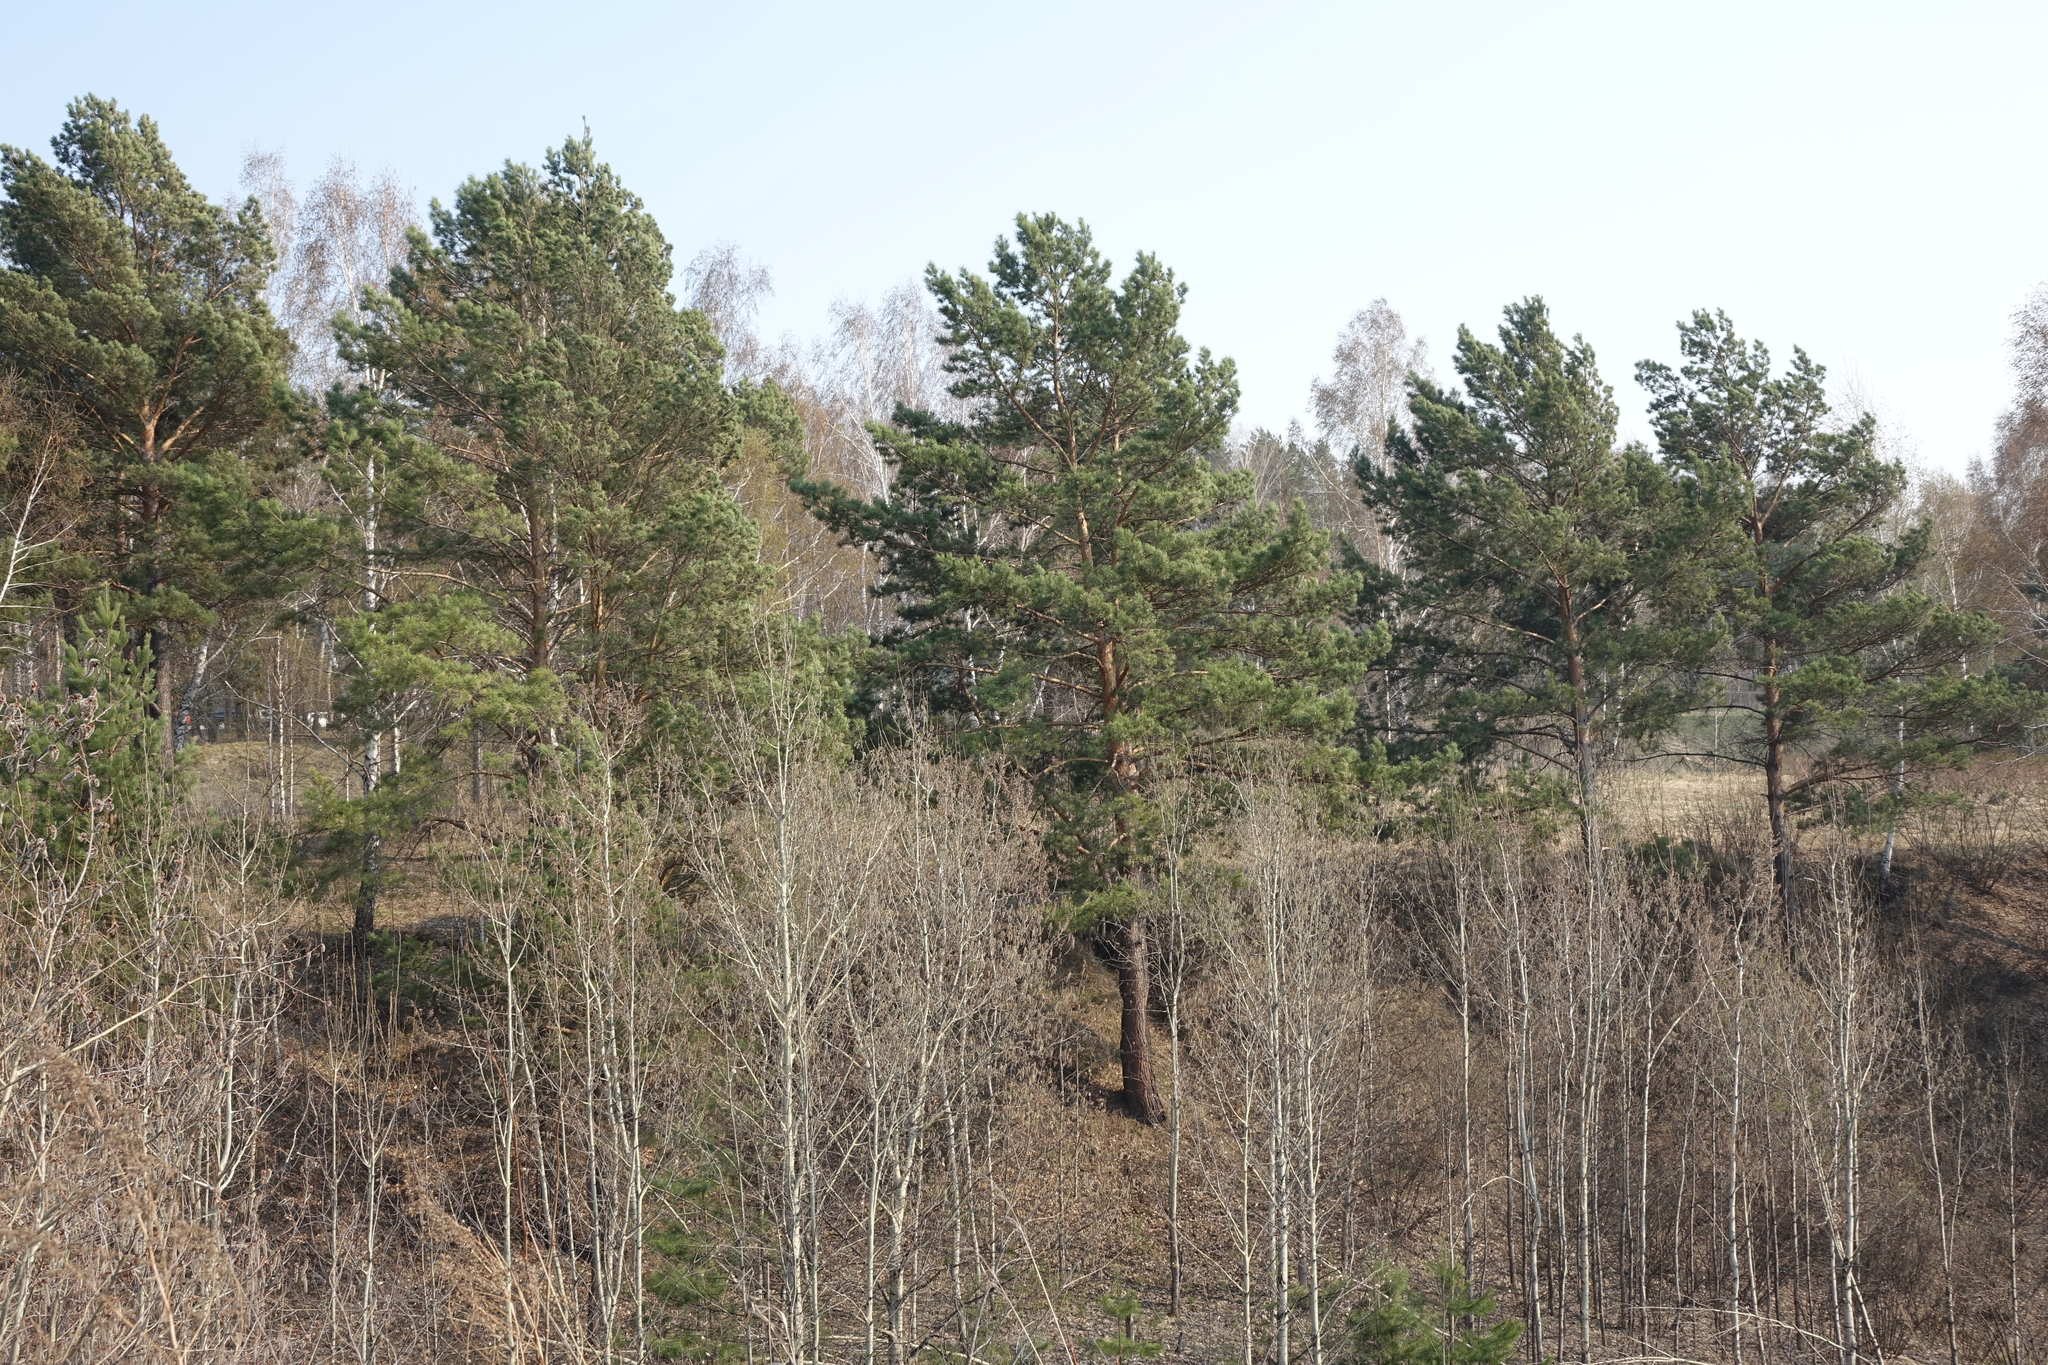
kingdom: Plantae
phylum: Tracheophyta
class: Pinopsida
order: Pinales
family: Pinaceae
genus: Pinus
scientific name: Pinus sylvestris
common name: Scots pine
